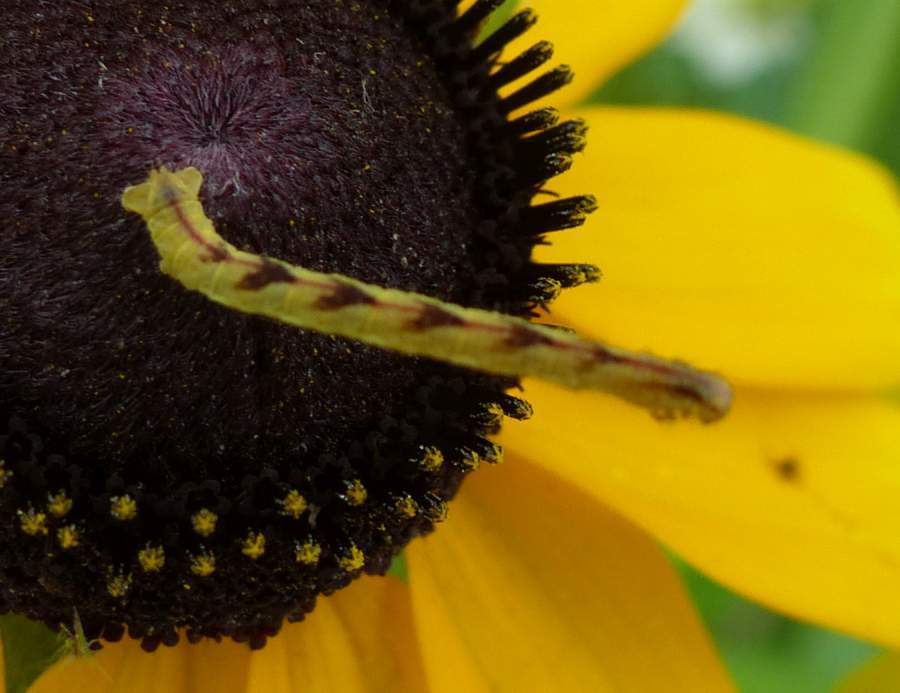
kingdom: Animalia
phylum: Arthropoda
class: Insecta
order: Lepidoptera
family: Geometridae
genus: Eupithecia
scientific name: Eupithecia miserulata
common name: Common eupithecia
